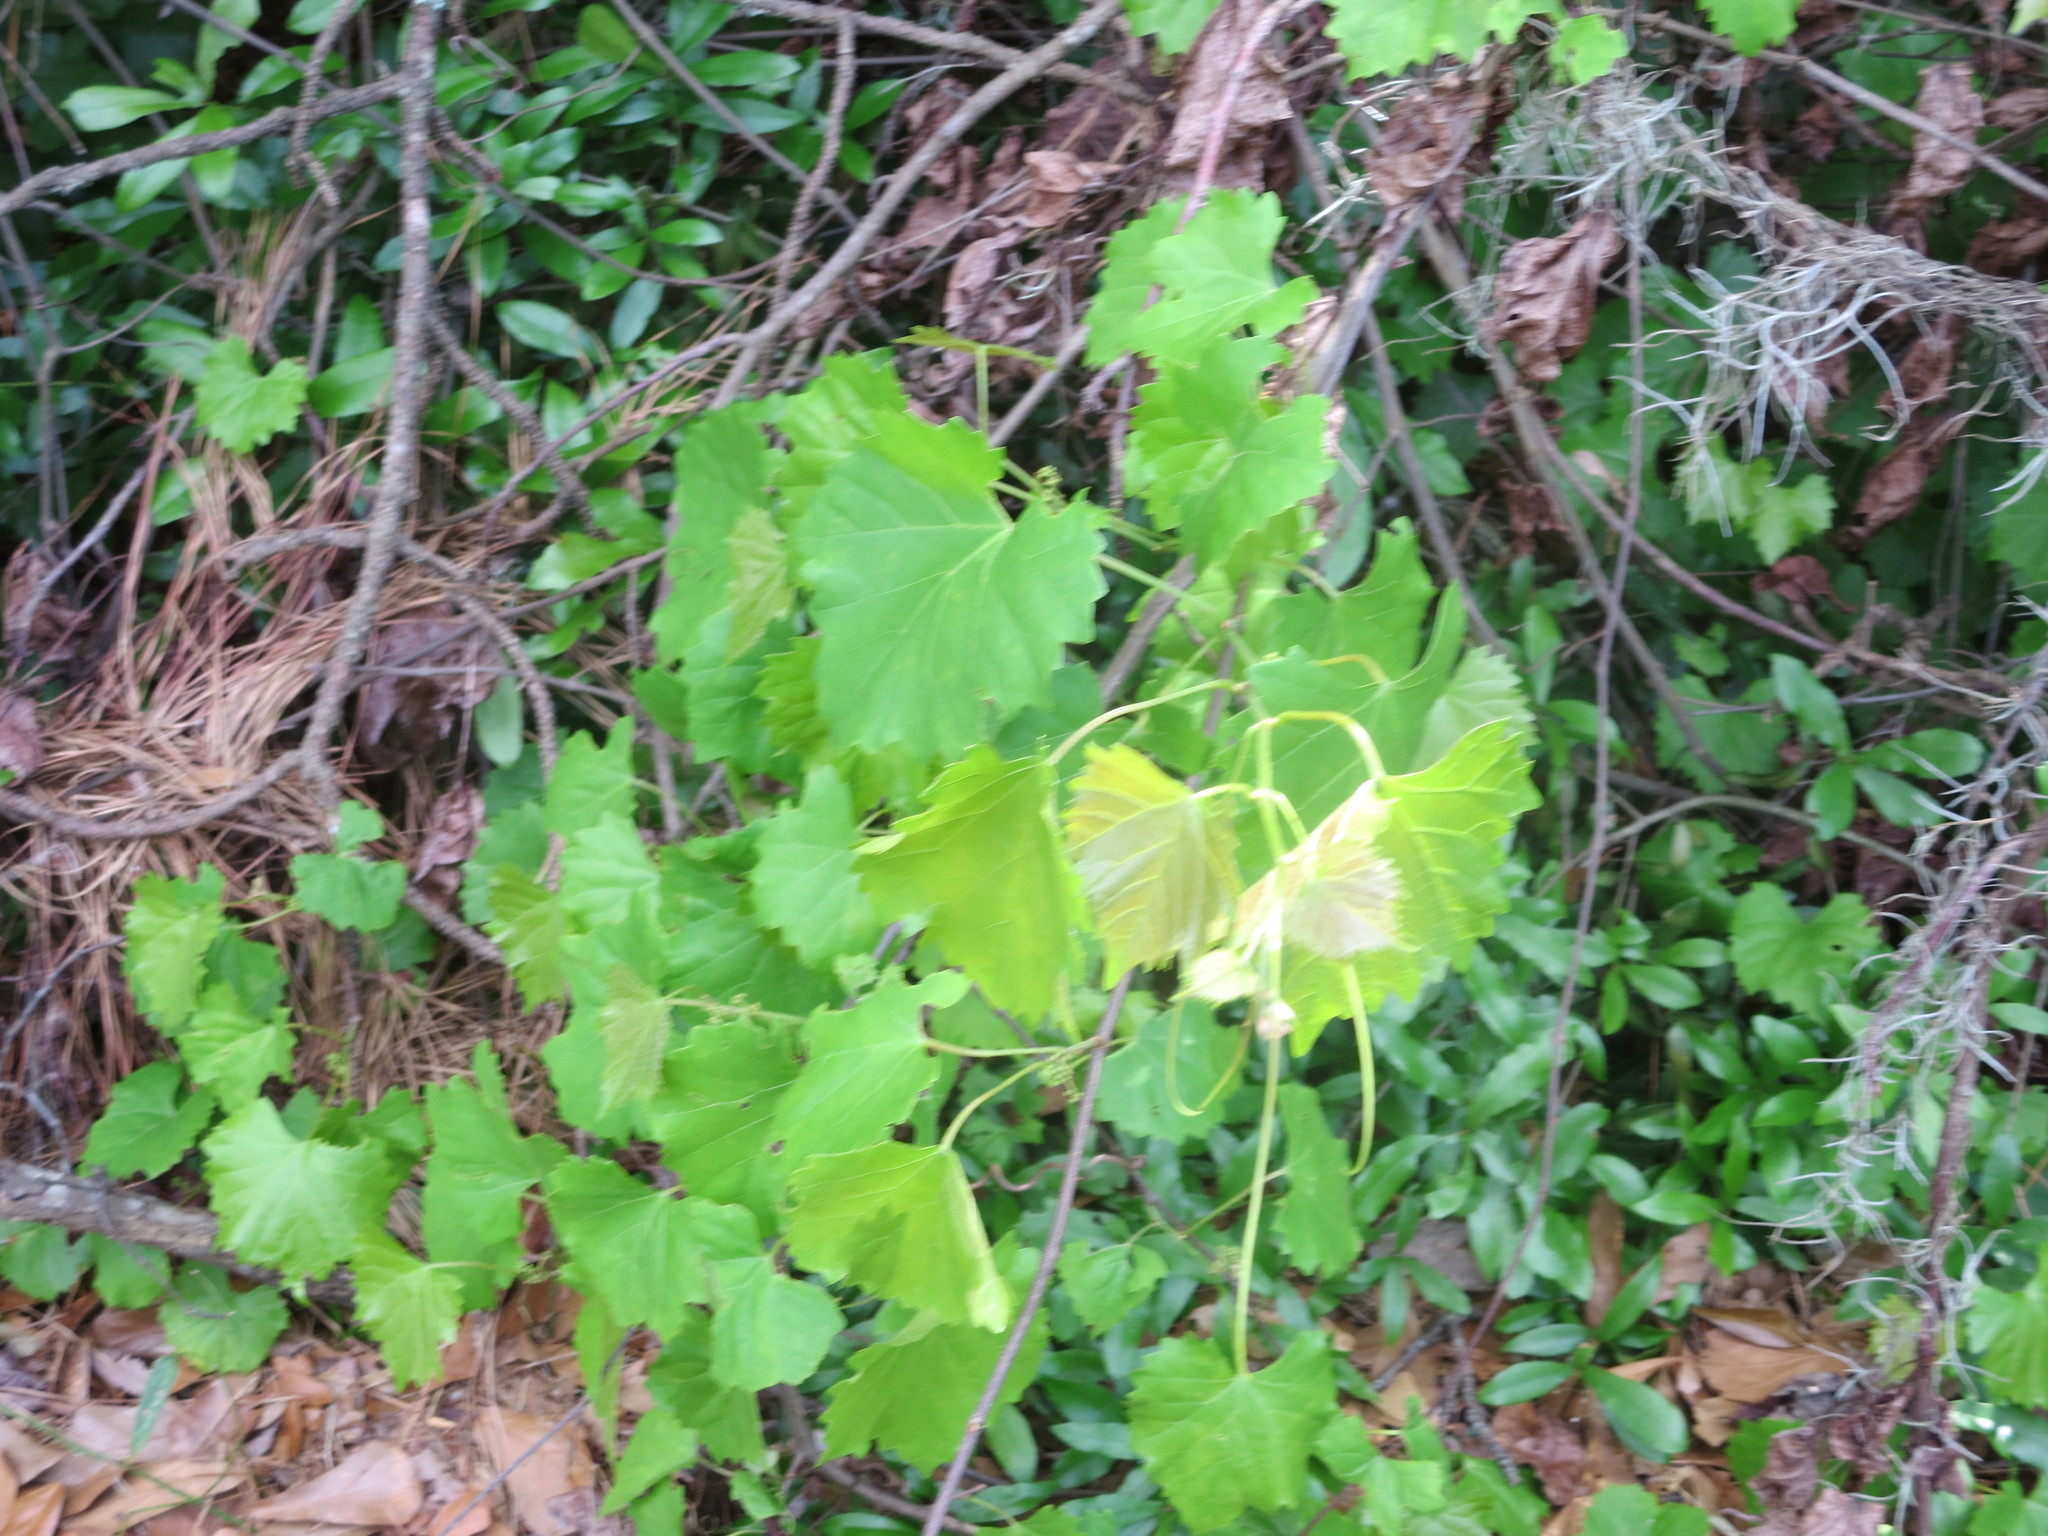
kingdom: Plantae
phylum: Tracheophyta
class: Magnoliopsida
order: Vitales
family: Vitaceae
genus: Vitis
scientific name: Vitis rotundifolia
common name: Muscadine grape
